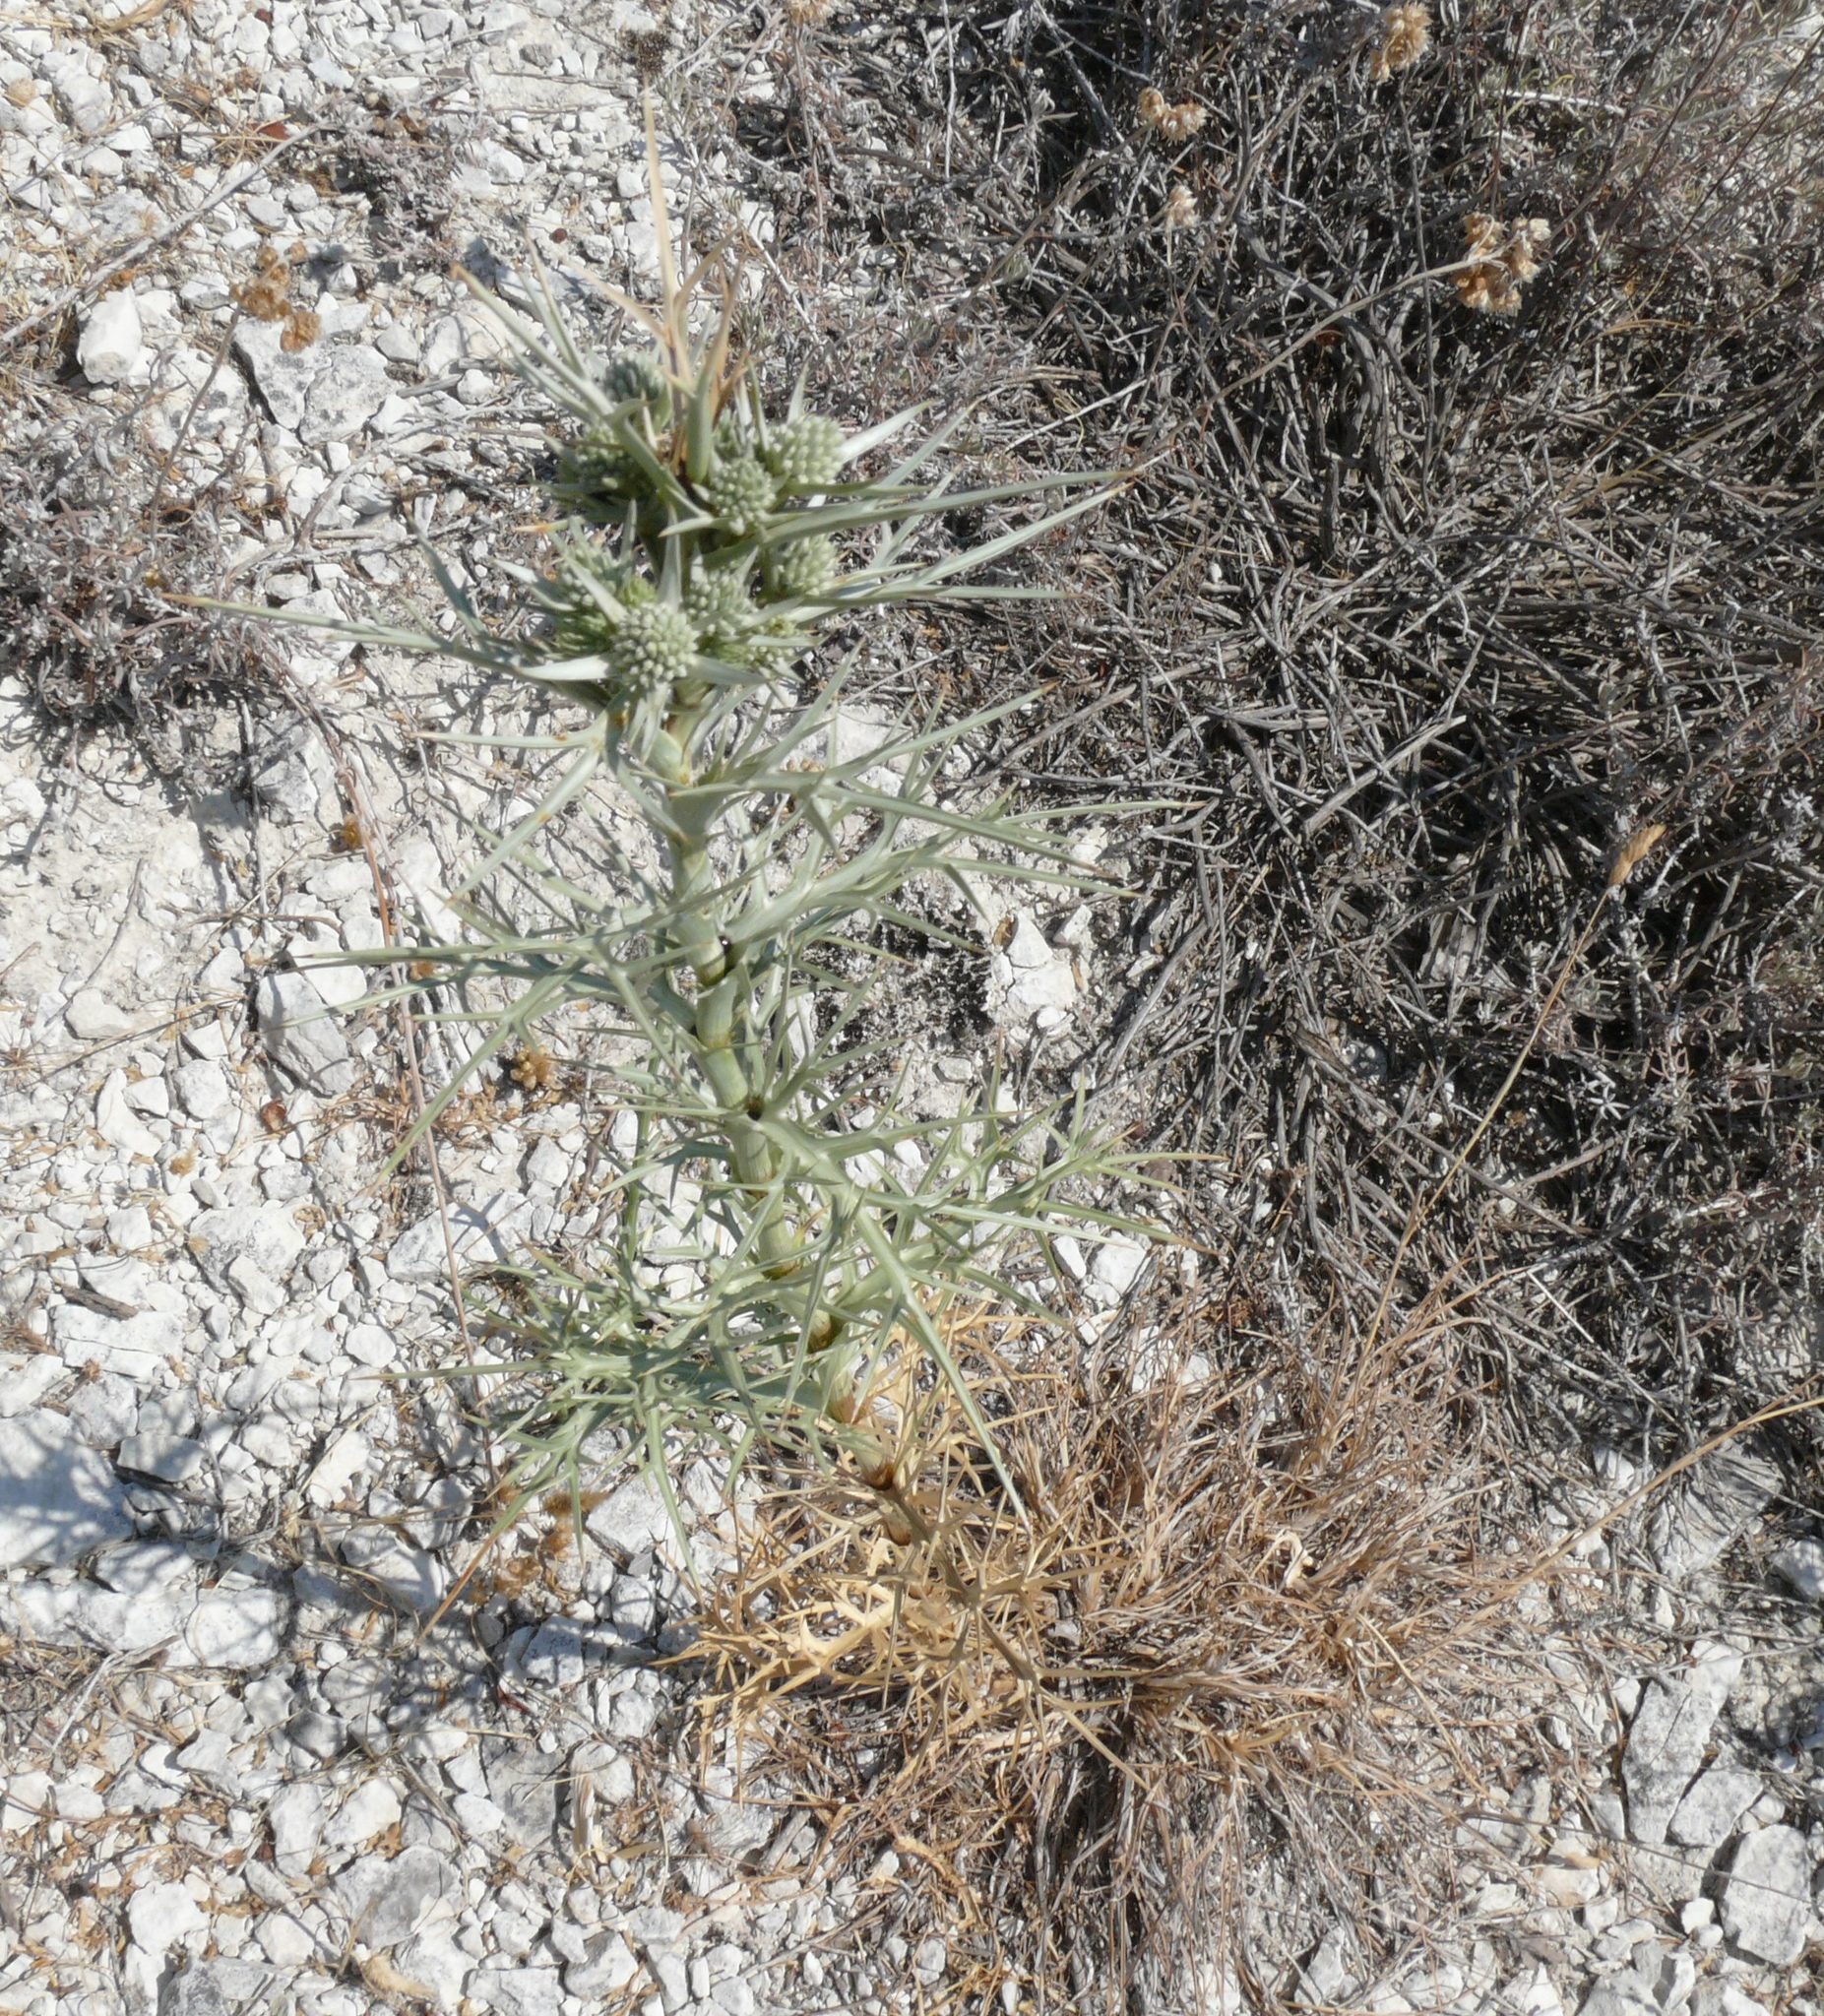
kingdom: Plantae
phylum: Tracheophyta
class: Magnoliopsida
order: Apiales
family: Apiaceae
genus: Eryngium
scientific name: Eryngium glomeratum
